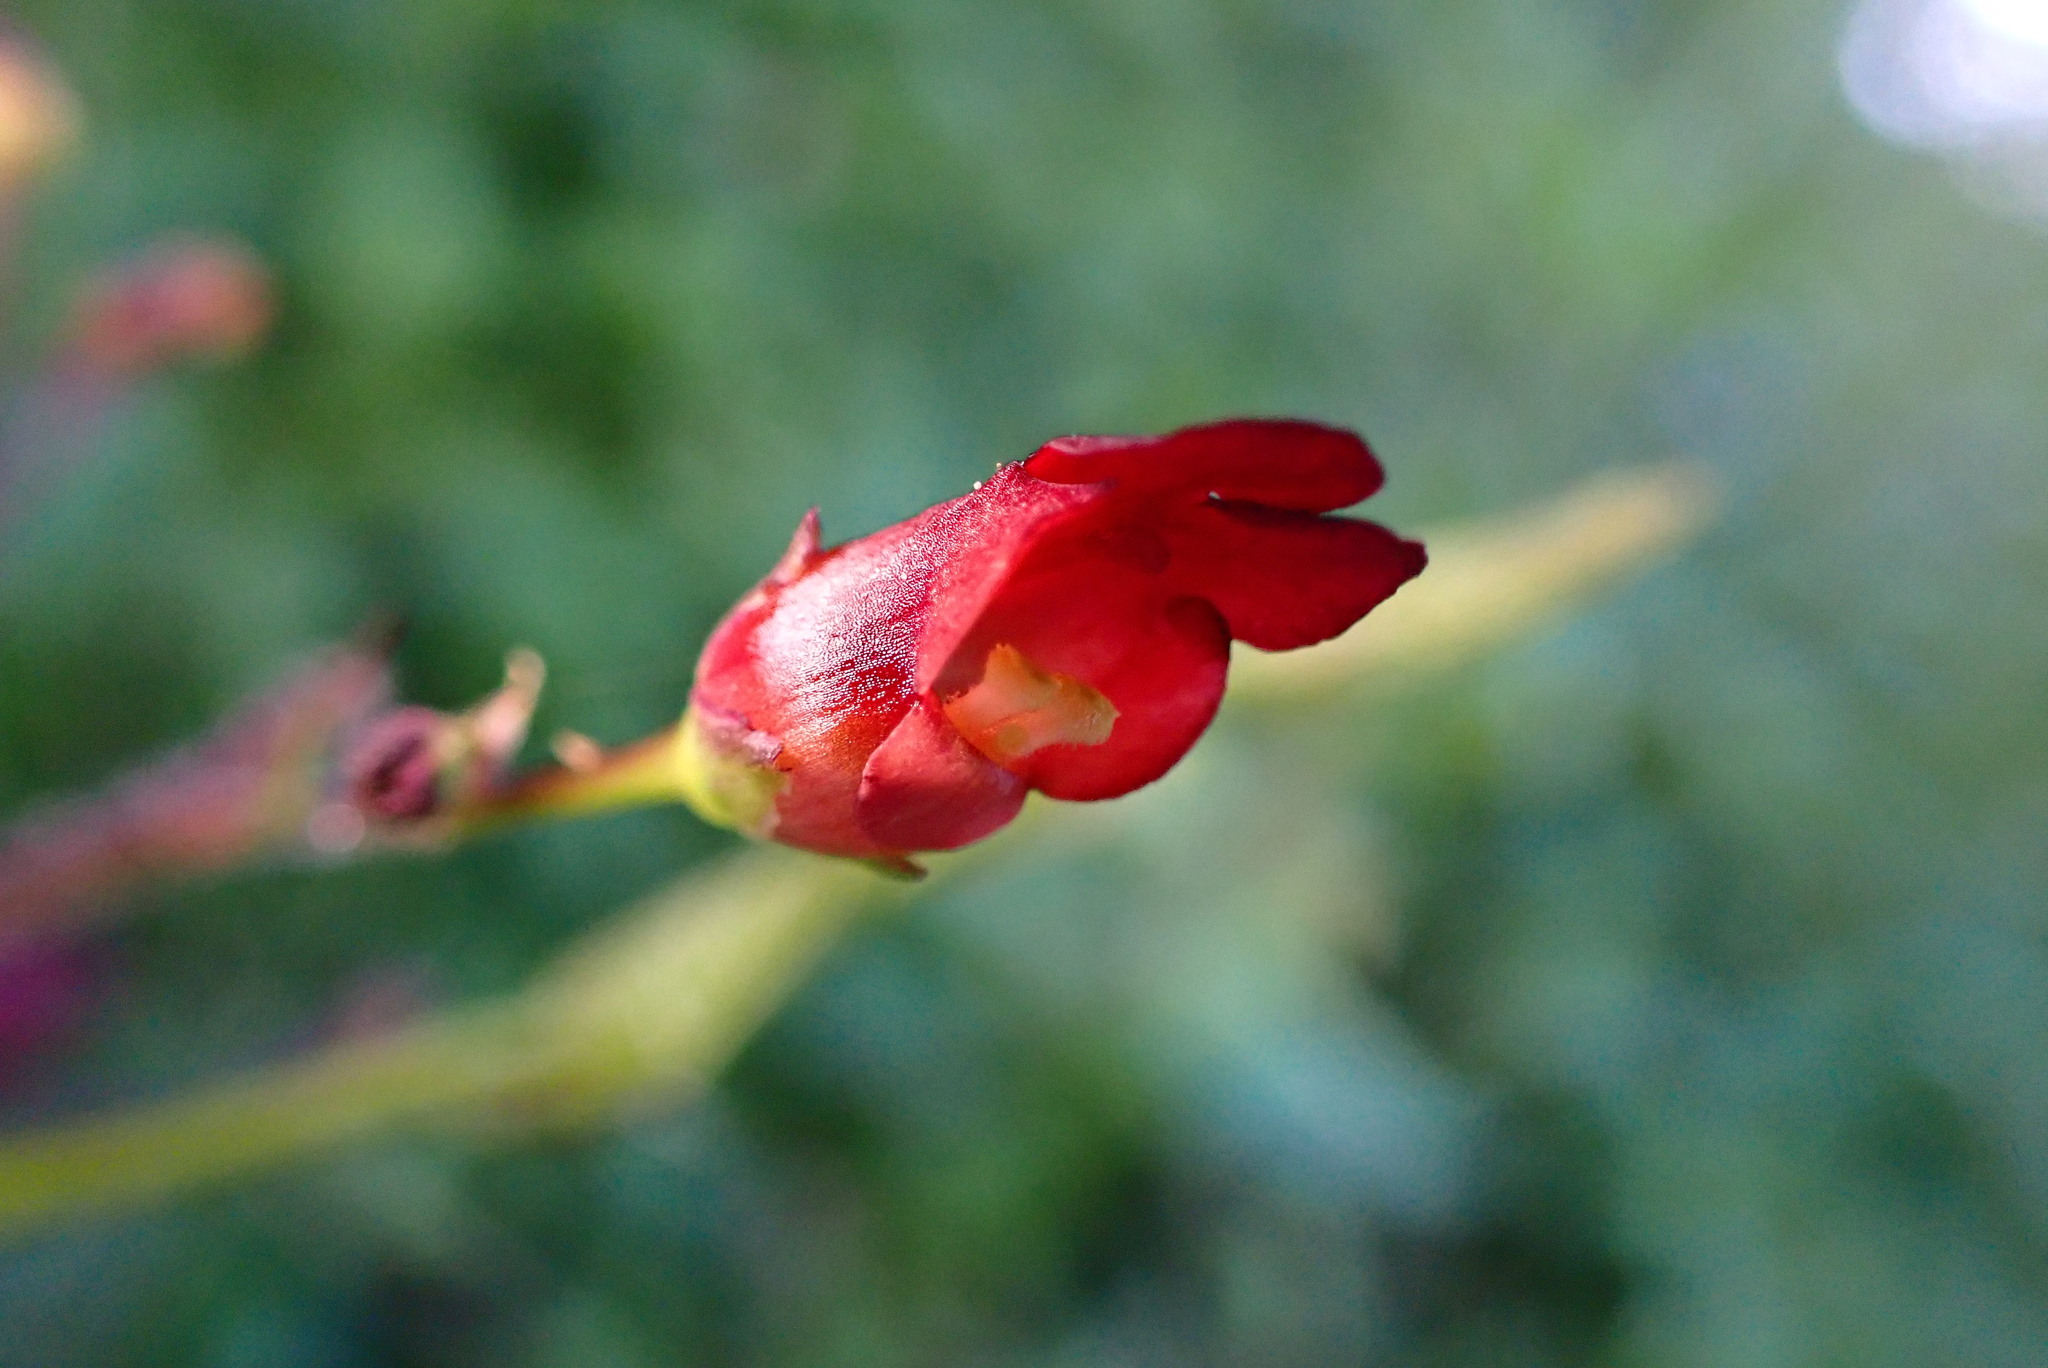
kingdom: Plantae
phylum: Tracheophyta
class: Magnoliopsida
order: Lamiales
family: Scrophulariaceae
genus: Scrophularia
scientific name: Scrophularia californica
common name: California figwort
